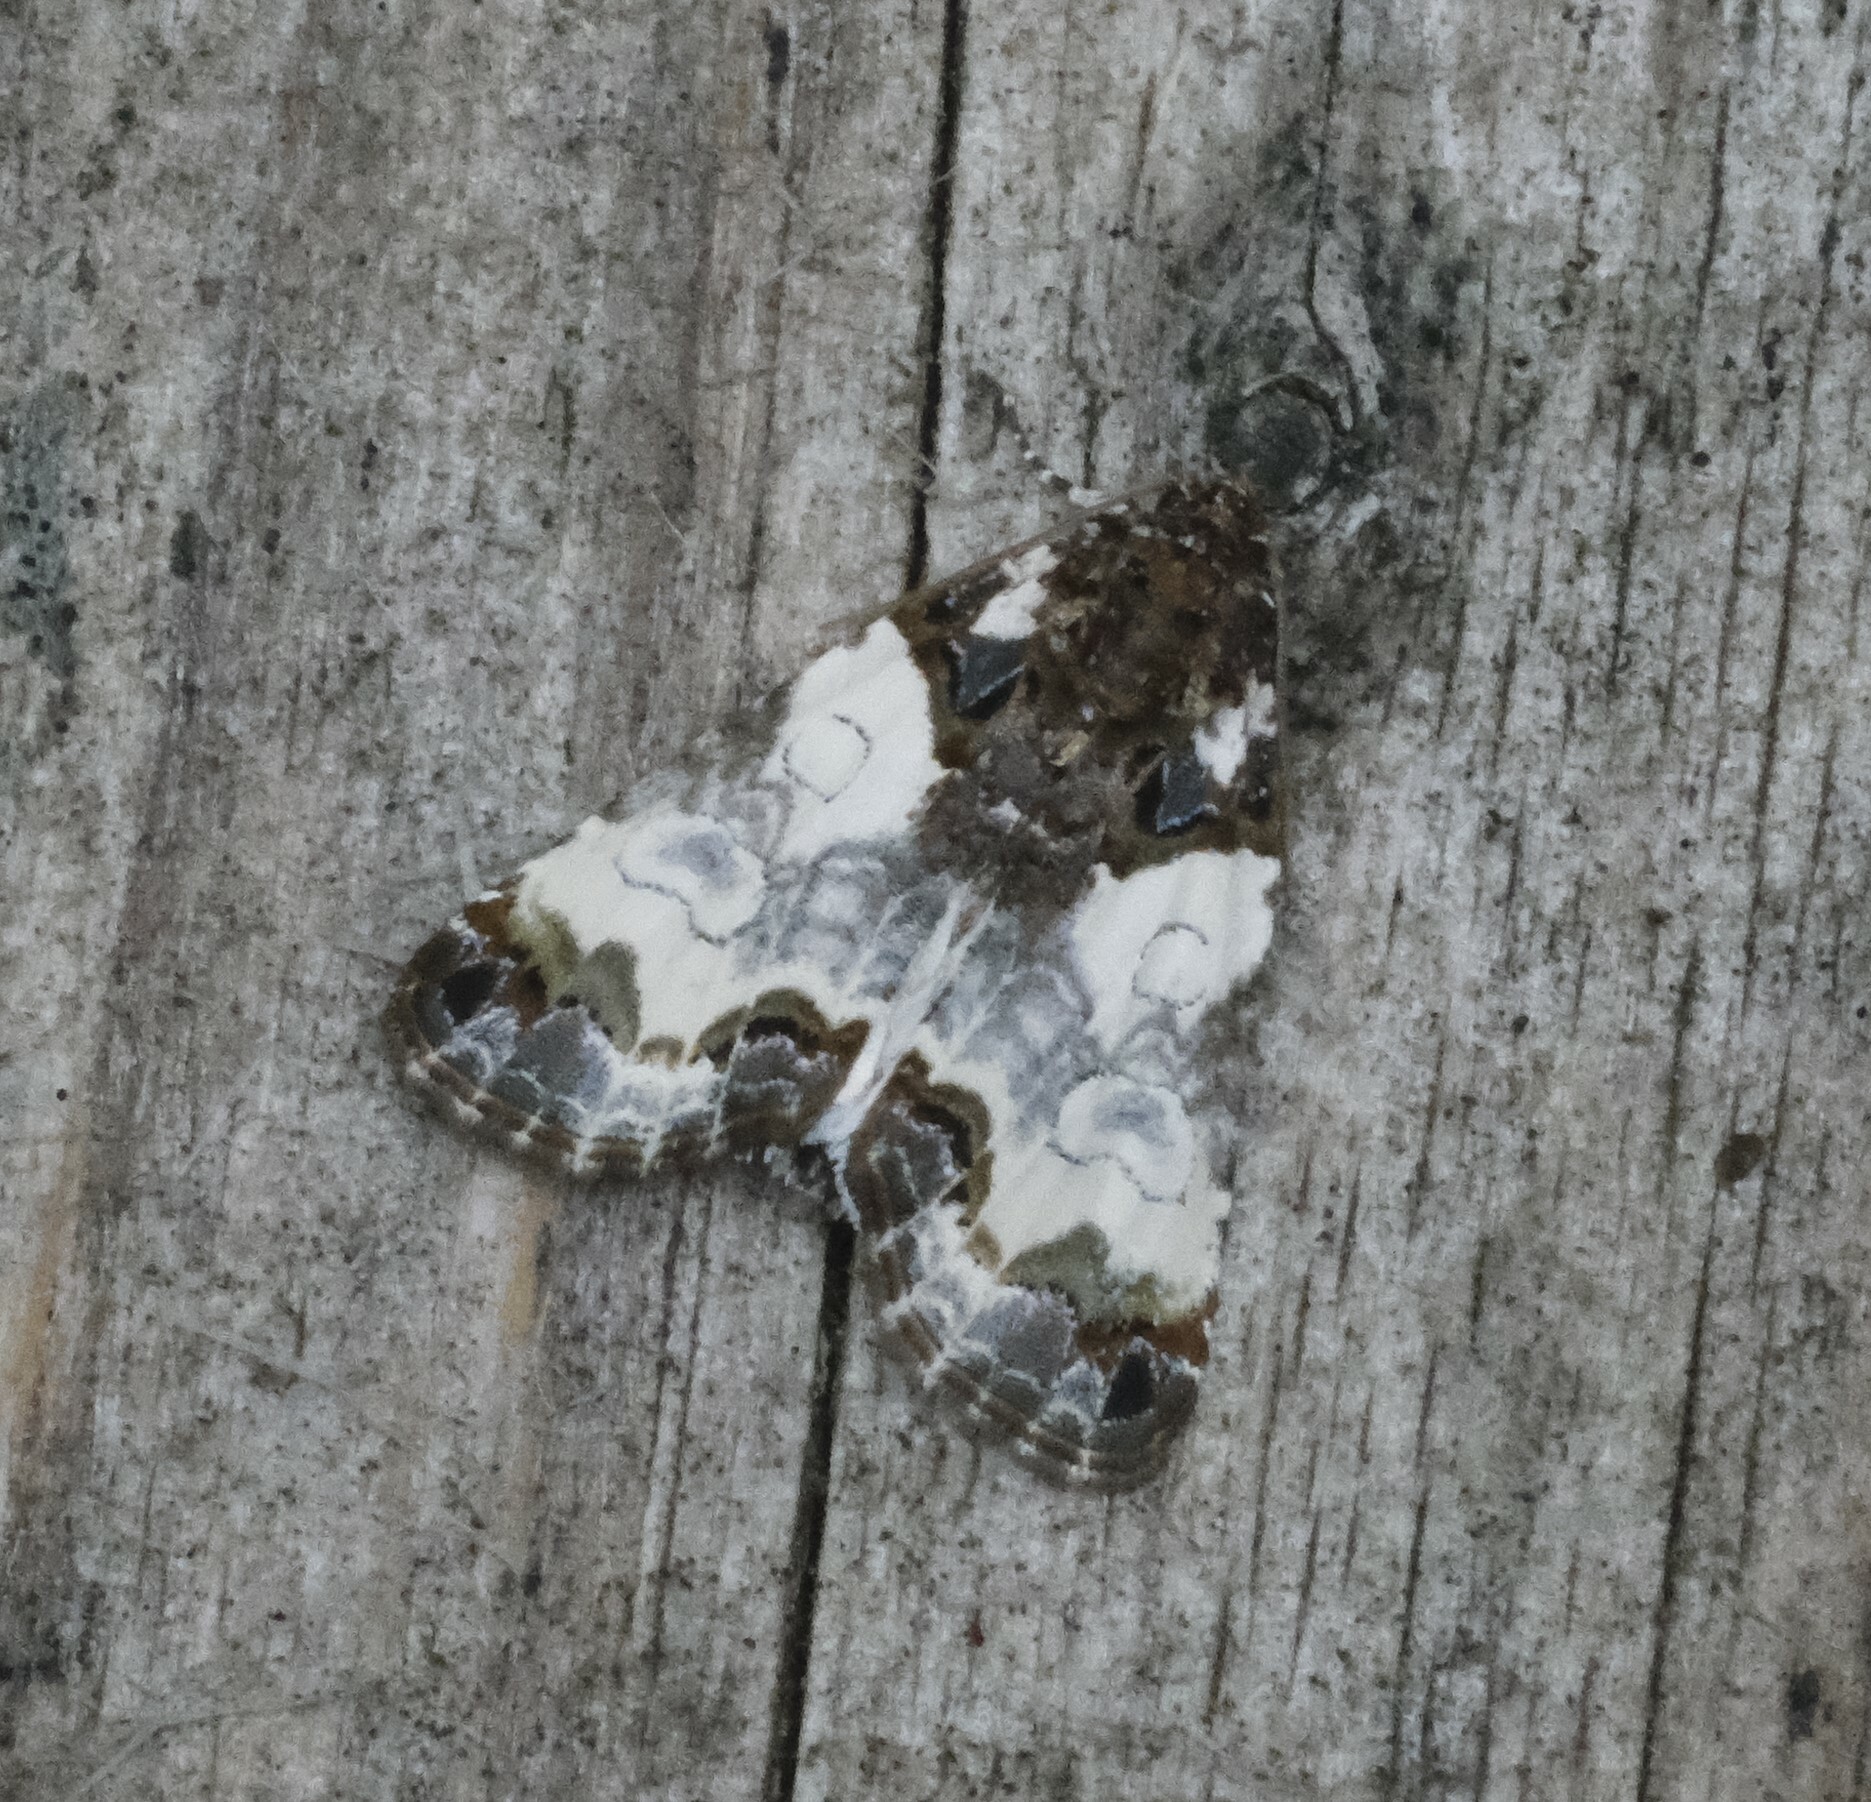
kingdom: Animalia
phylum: Arthropoda
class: Insecta
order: Lepidoptera
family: Noctuidae
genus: Cerma
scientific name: Cerma cerintha
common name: Tufted bird-dropping moth
